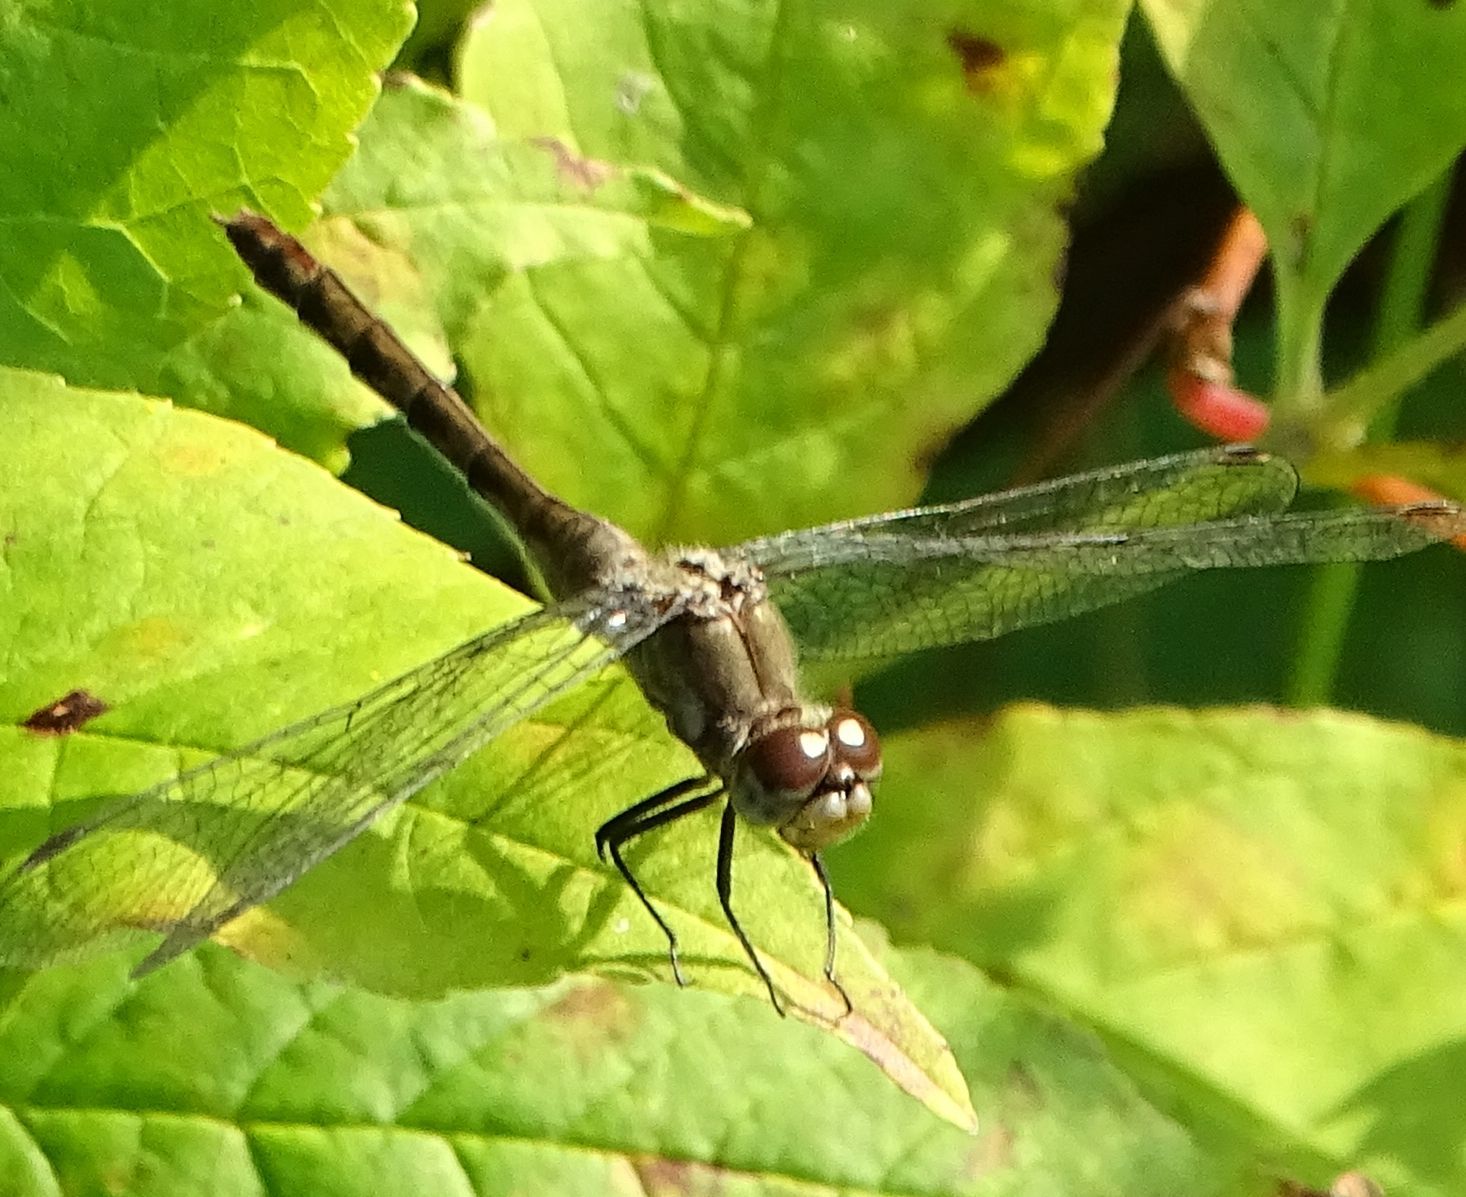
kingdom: Animalia
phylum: Arthropoda
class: Insecta
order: Odonata
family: Libellulidae
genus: Sympetrum
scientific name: Sympetrum
